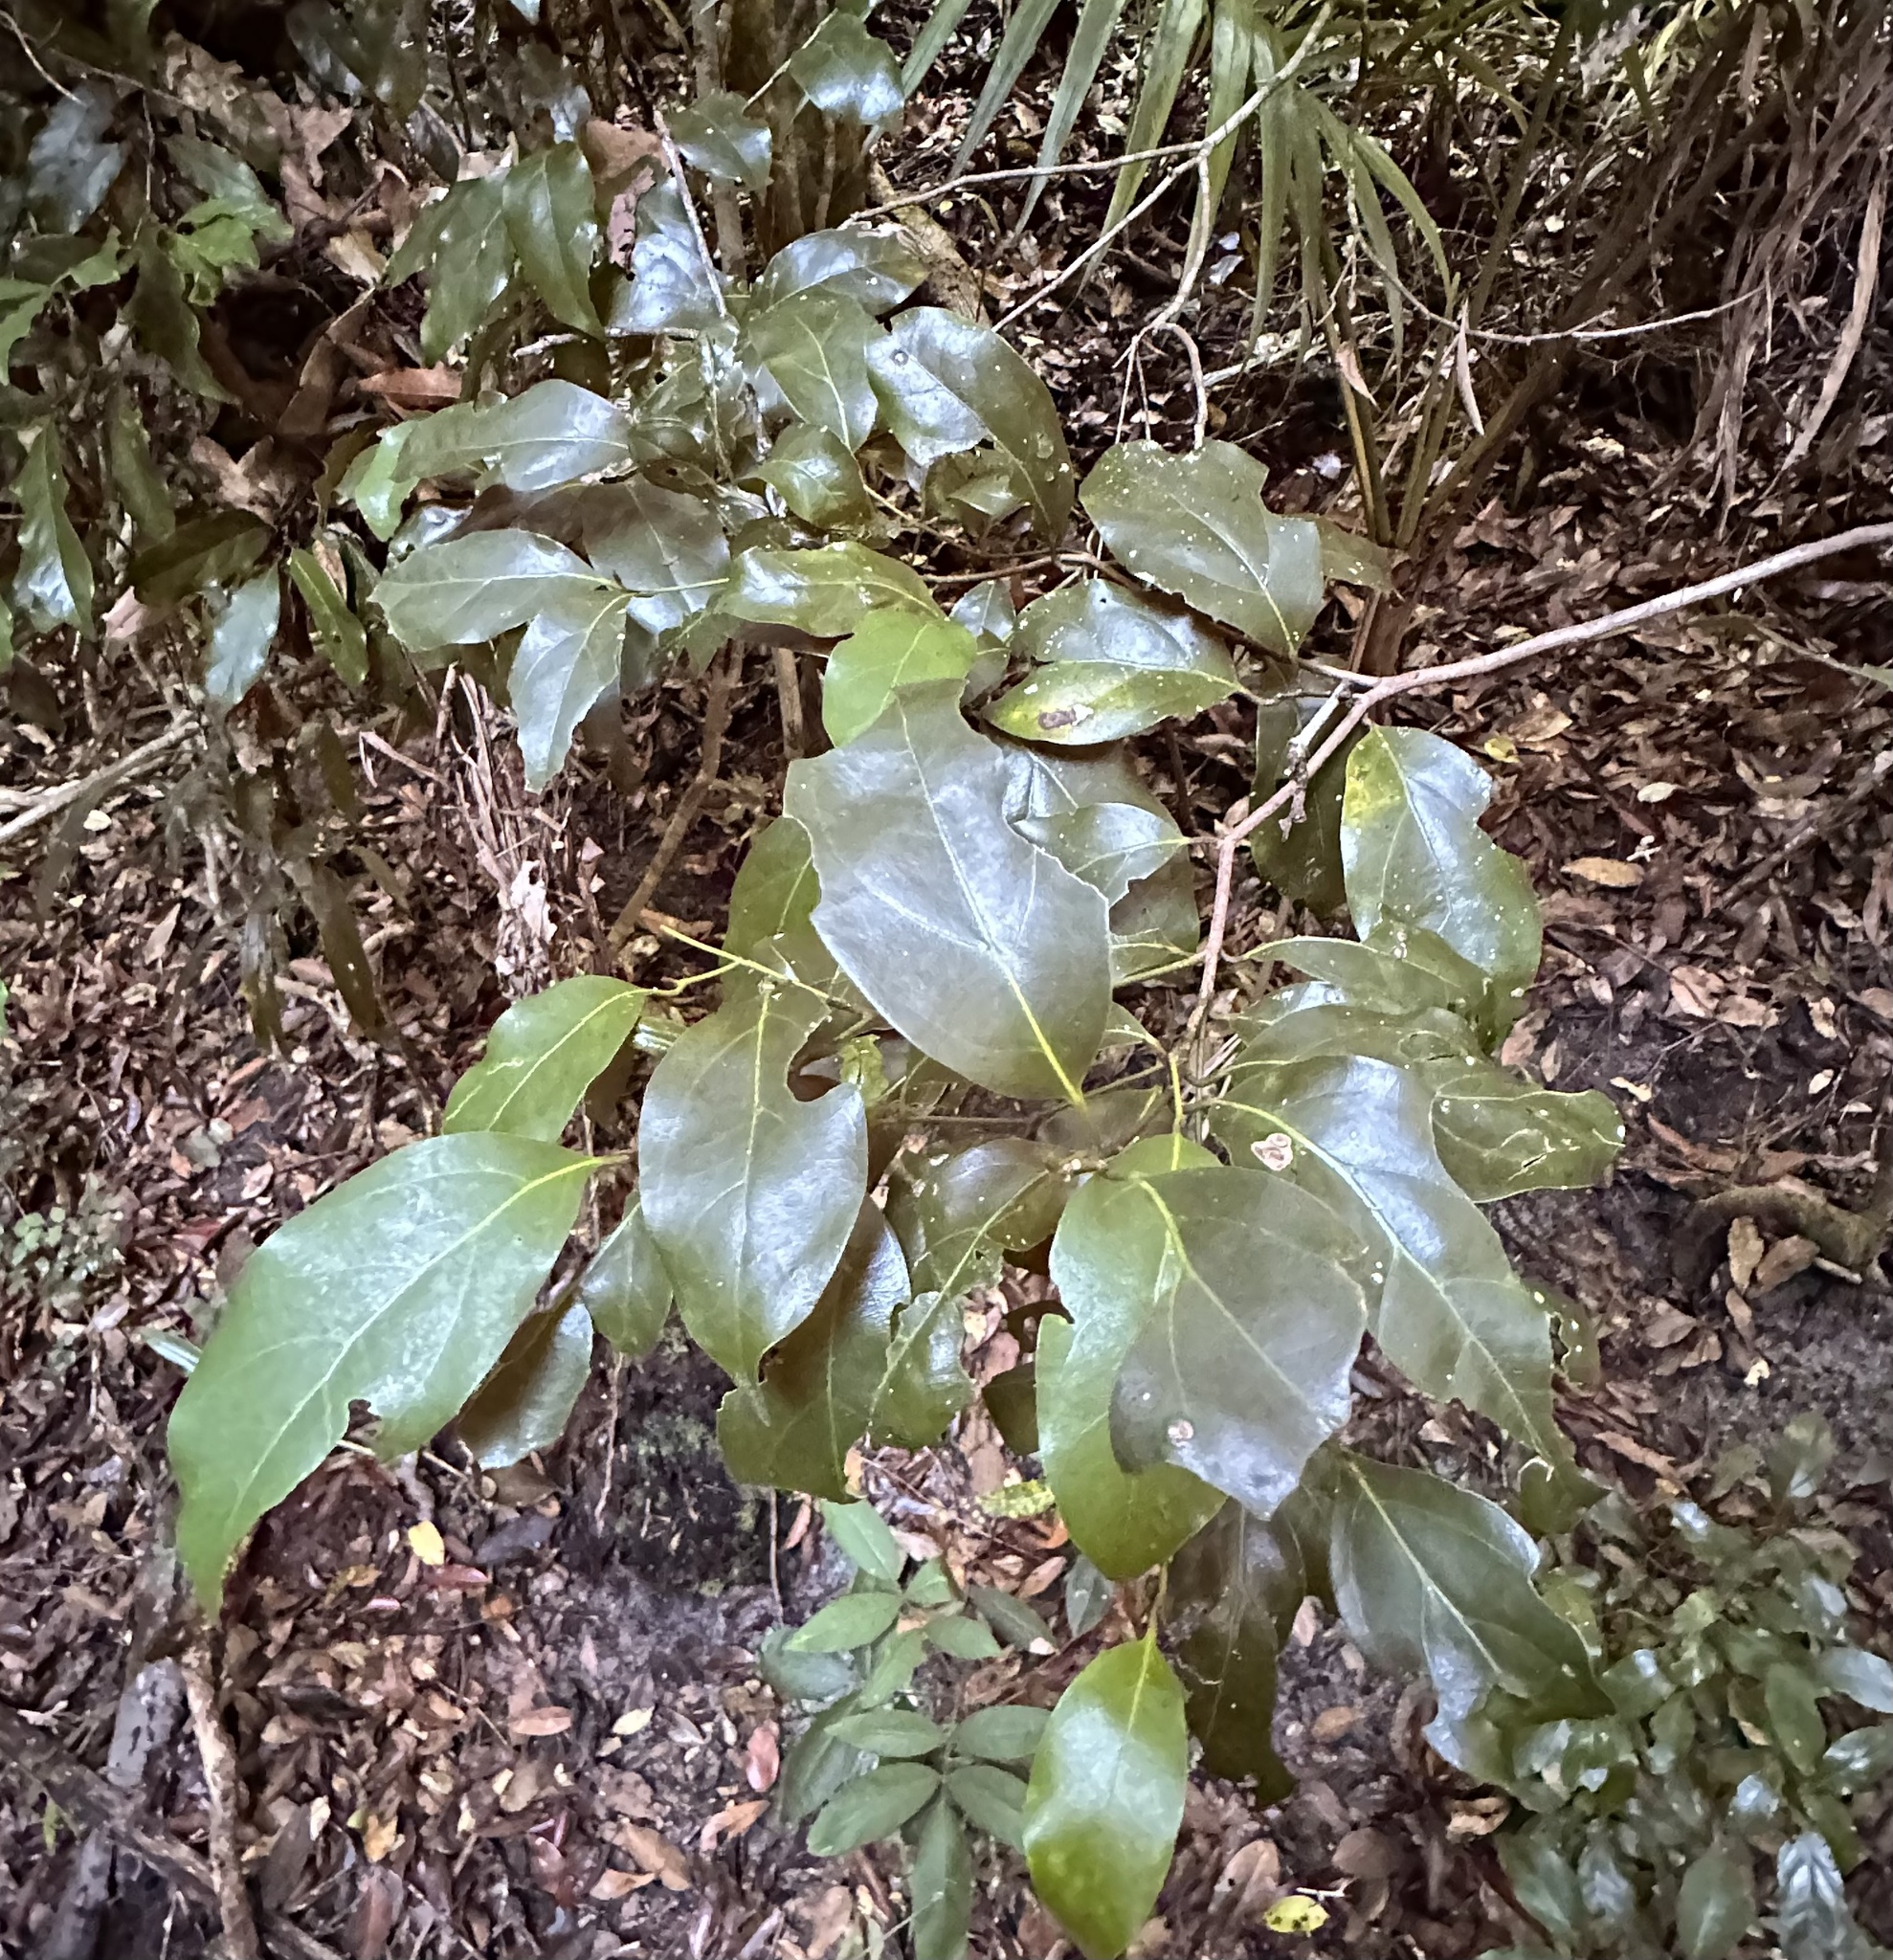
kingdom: Plantae
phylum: Tracheophyta
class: Magnoliopsida
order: Laurales
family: Lauraceae
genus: Endiandra
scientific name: Endiandra discolor
